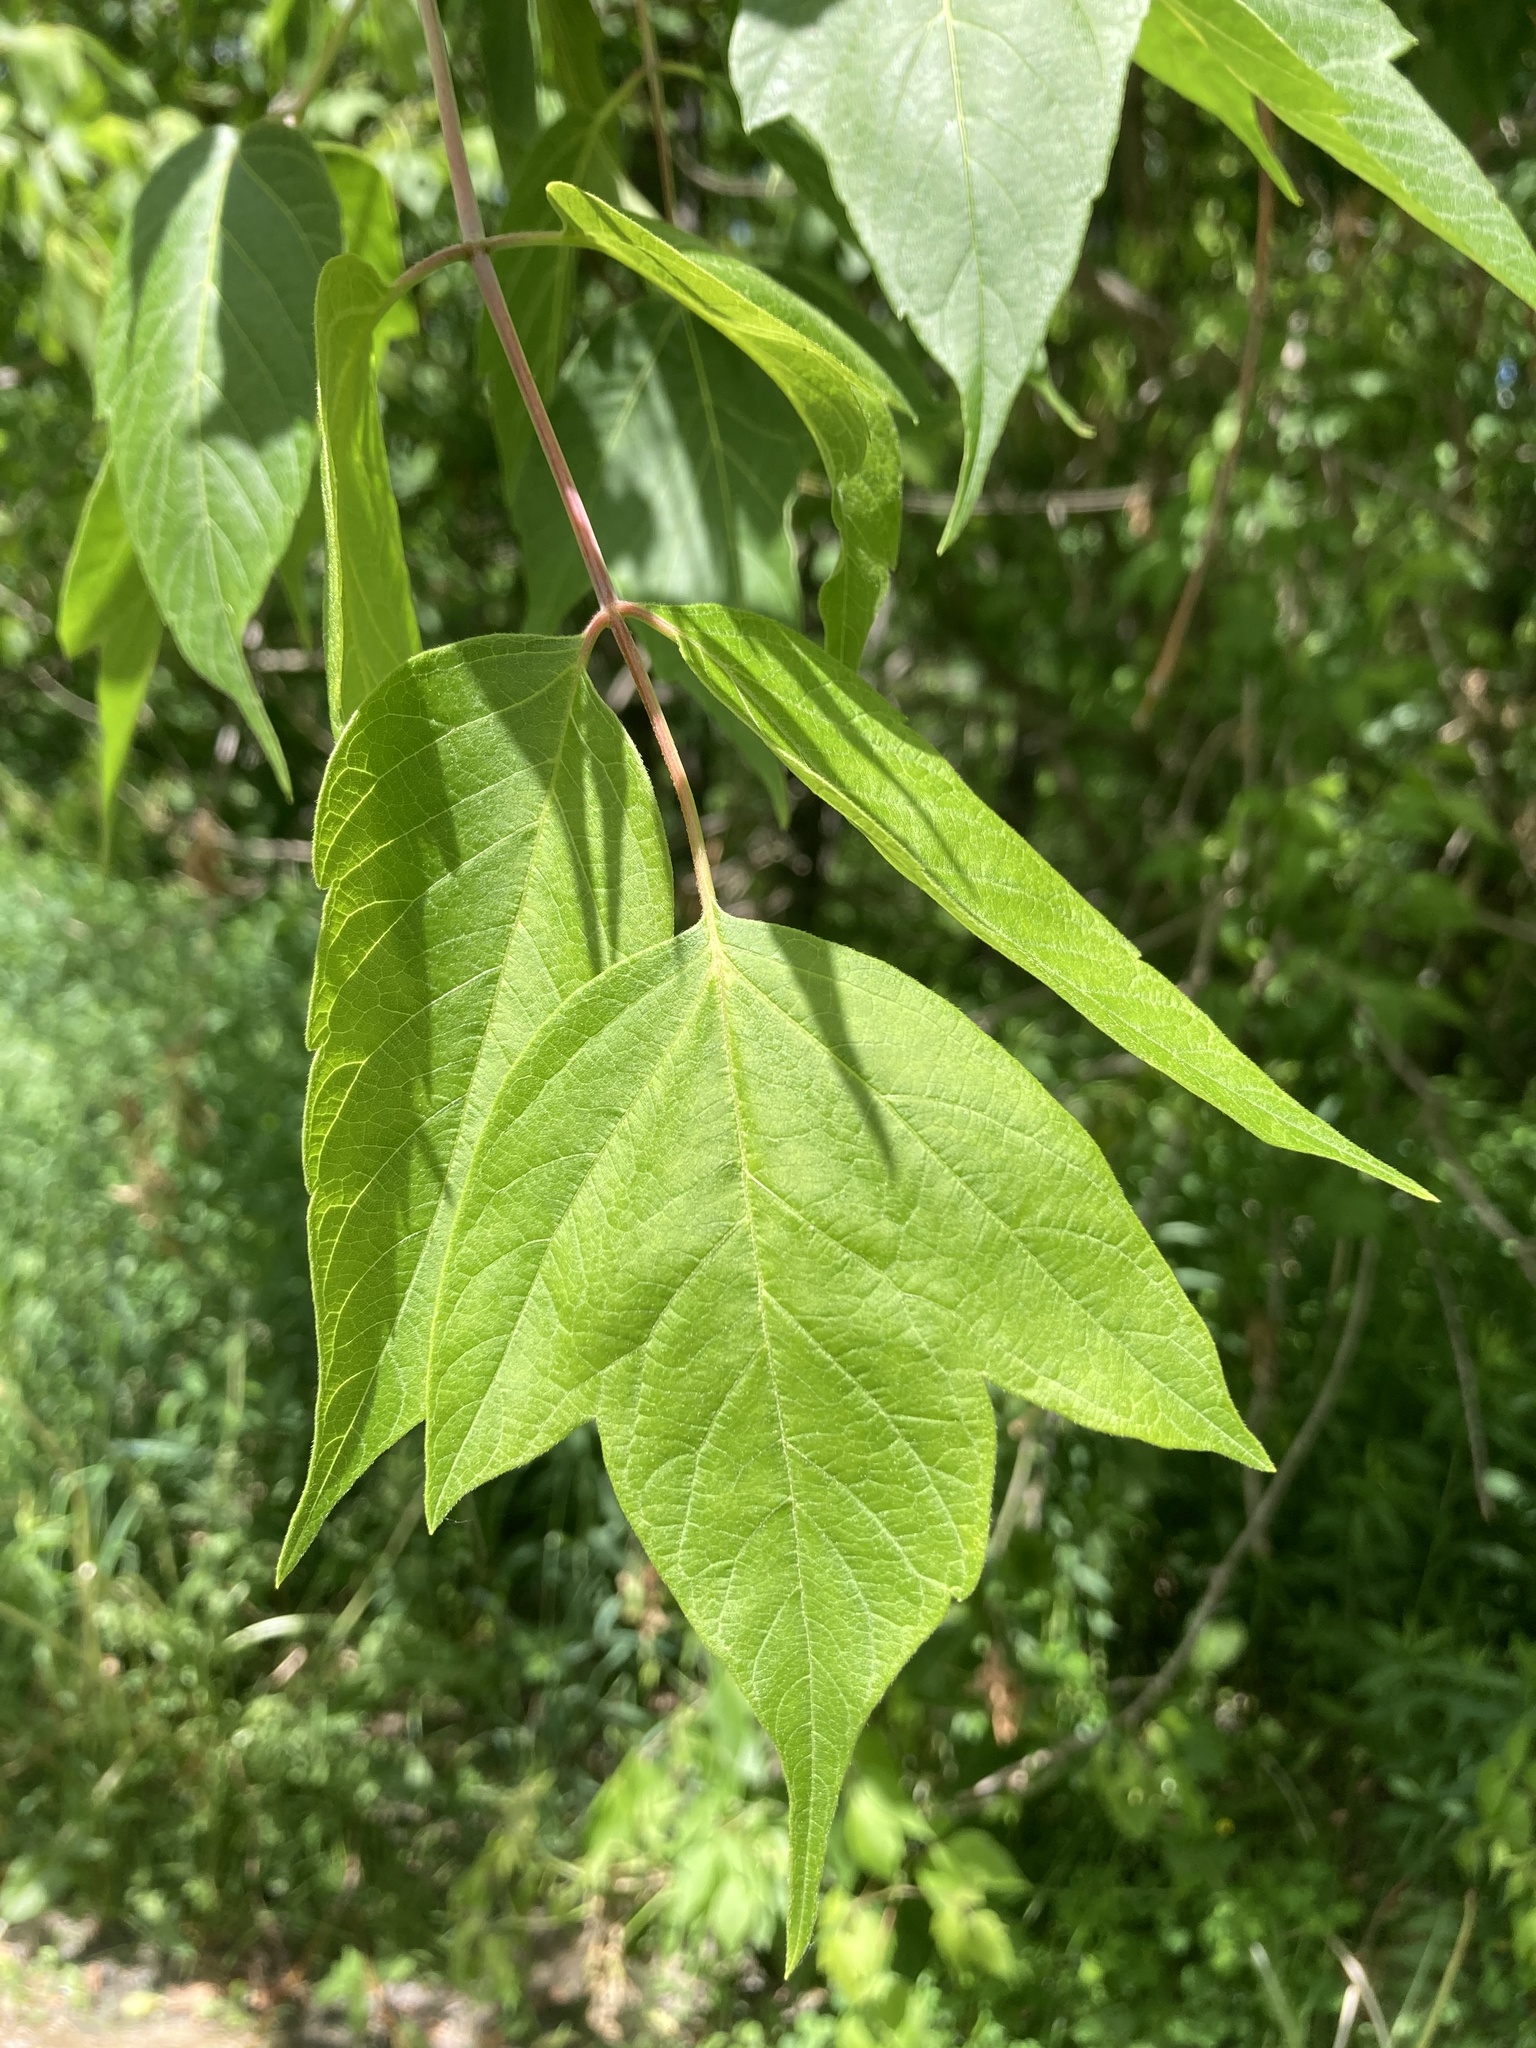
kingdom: Plantae
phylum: Tracheophyta
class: Magnoliopsida
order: Sapindales
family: Sapindaceae
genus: Acer
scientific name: Acer negundo
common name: Ashleaf maple
